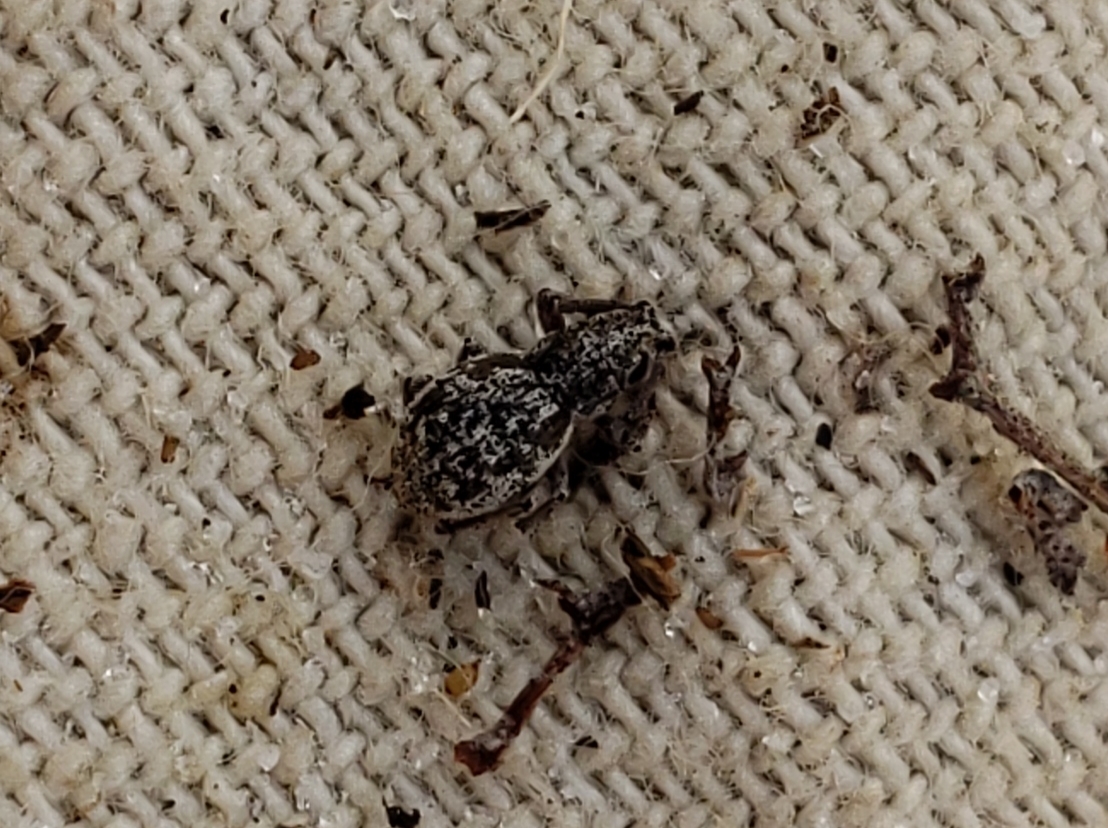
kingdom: Animalia
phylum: Arthropoda
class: Insecta
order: Coleoptera
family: Curculionidae
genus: Neoptochus
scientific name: Neoptochus adspersus
